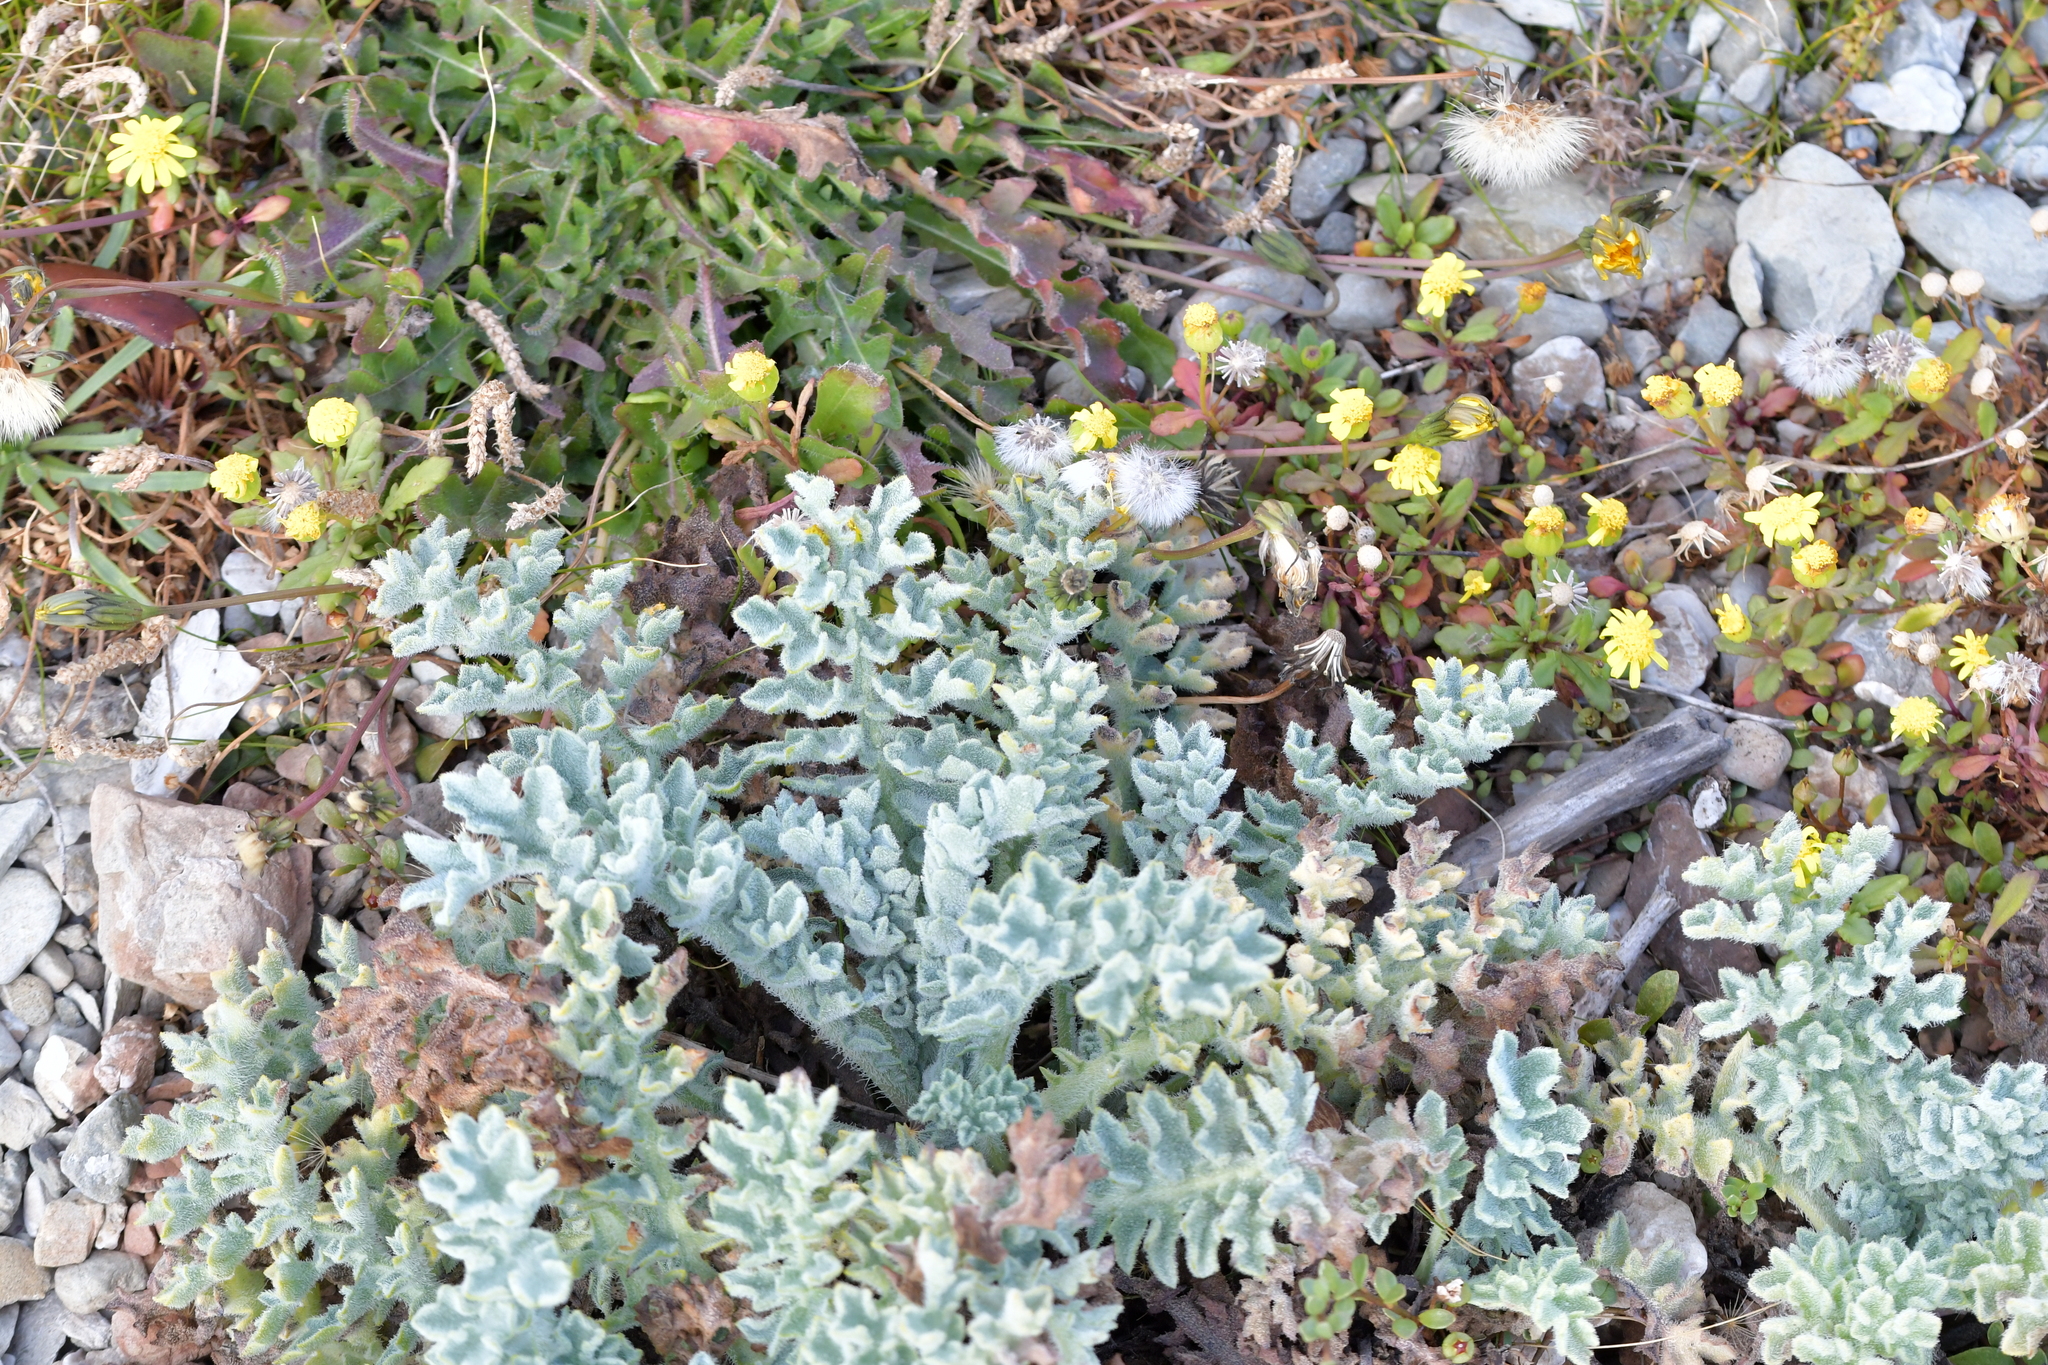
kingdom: Plantae
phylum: Tracheophyta
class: Magnoliopsida
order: Ranunculales
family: Papaveraceae
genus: Glaucium
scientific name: Glaucium flavum
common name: Yellow horned-poppy
